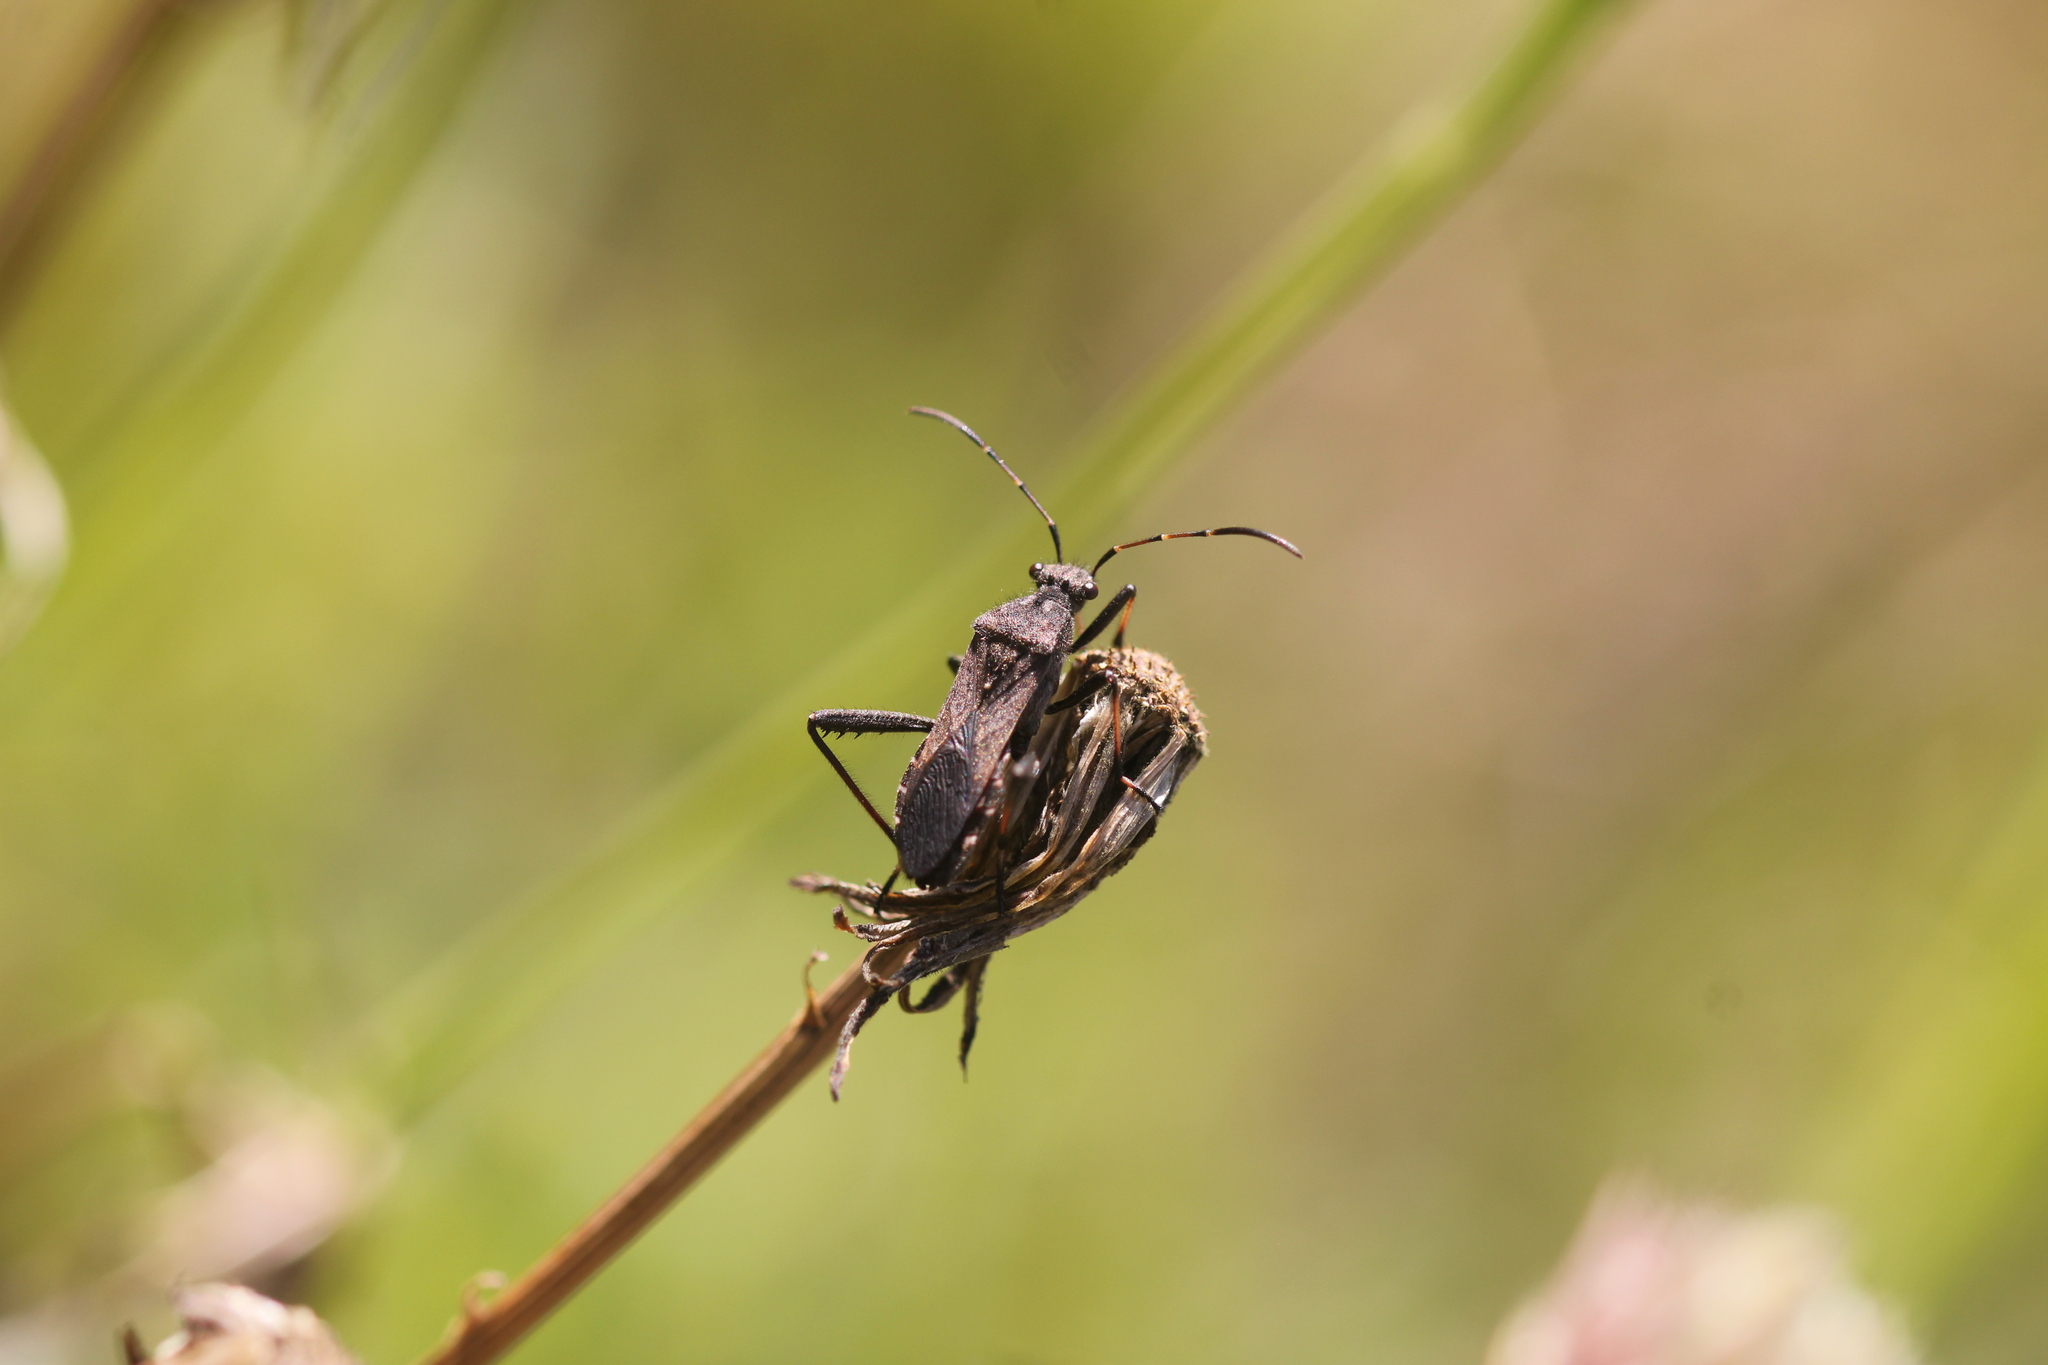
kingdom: Animalia
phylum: Arthropoda
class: Insecta
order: Hemiptera
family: Alydidae
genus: Alydus
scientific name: Alydus calcaratus
